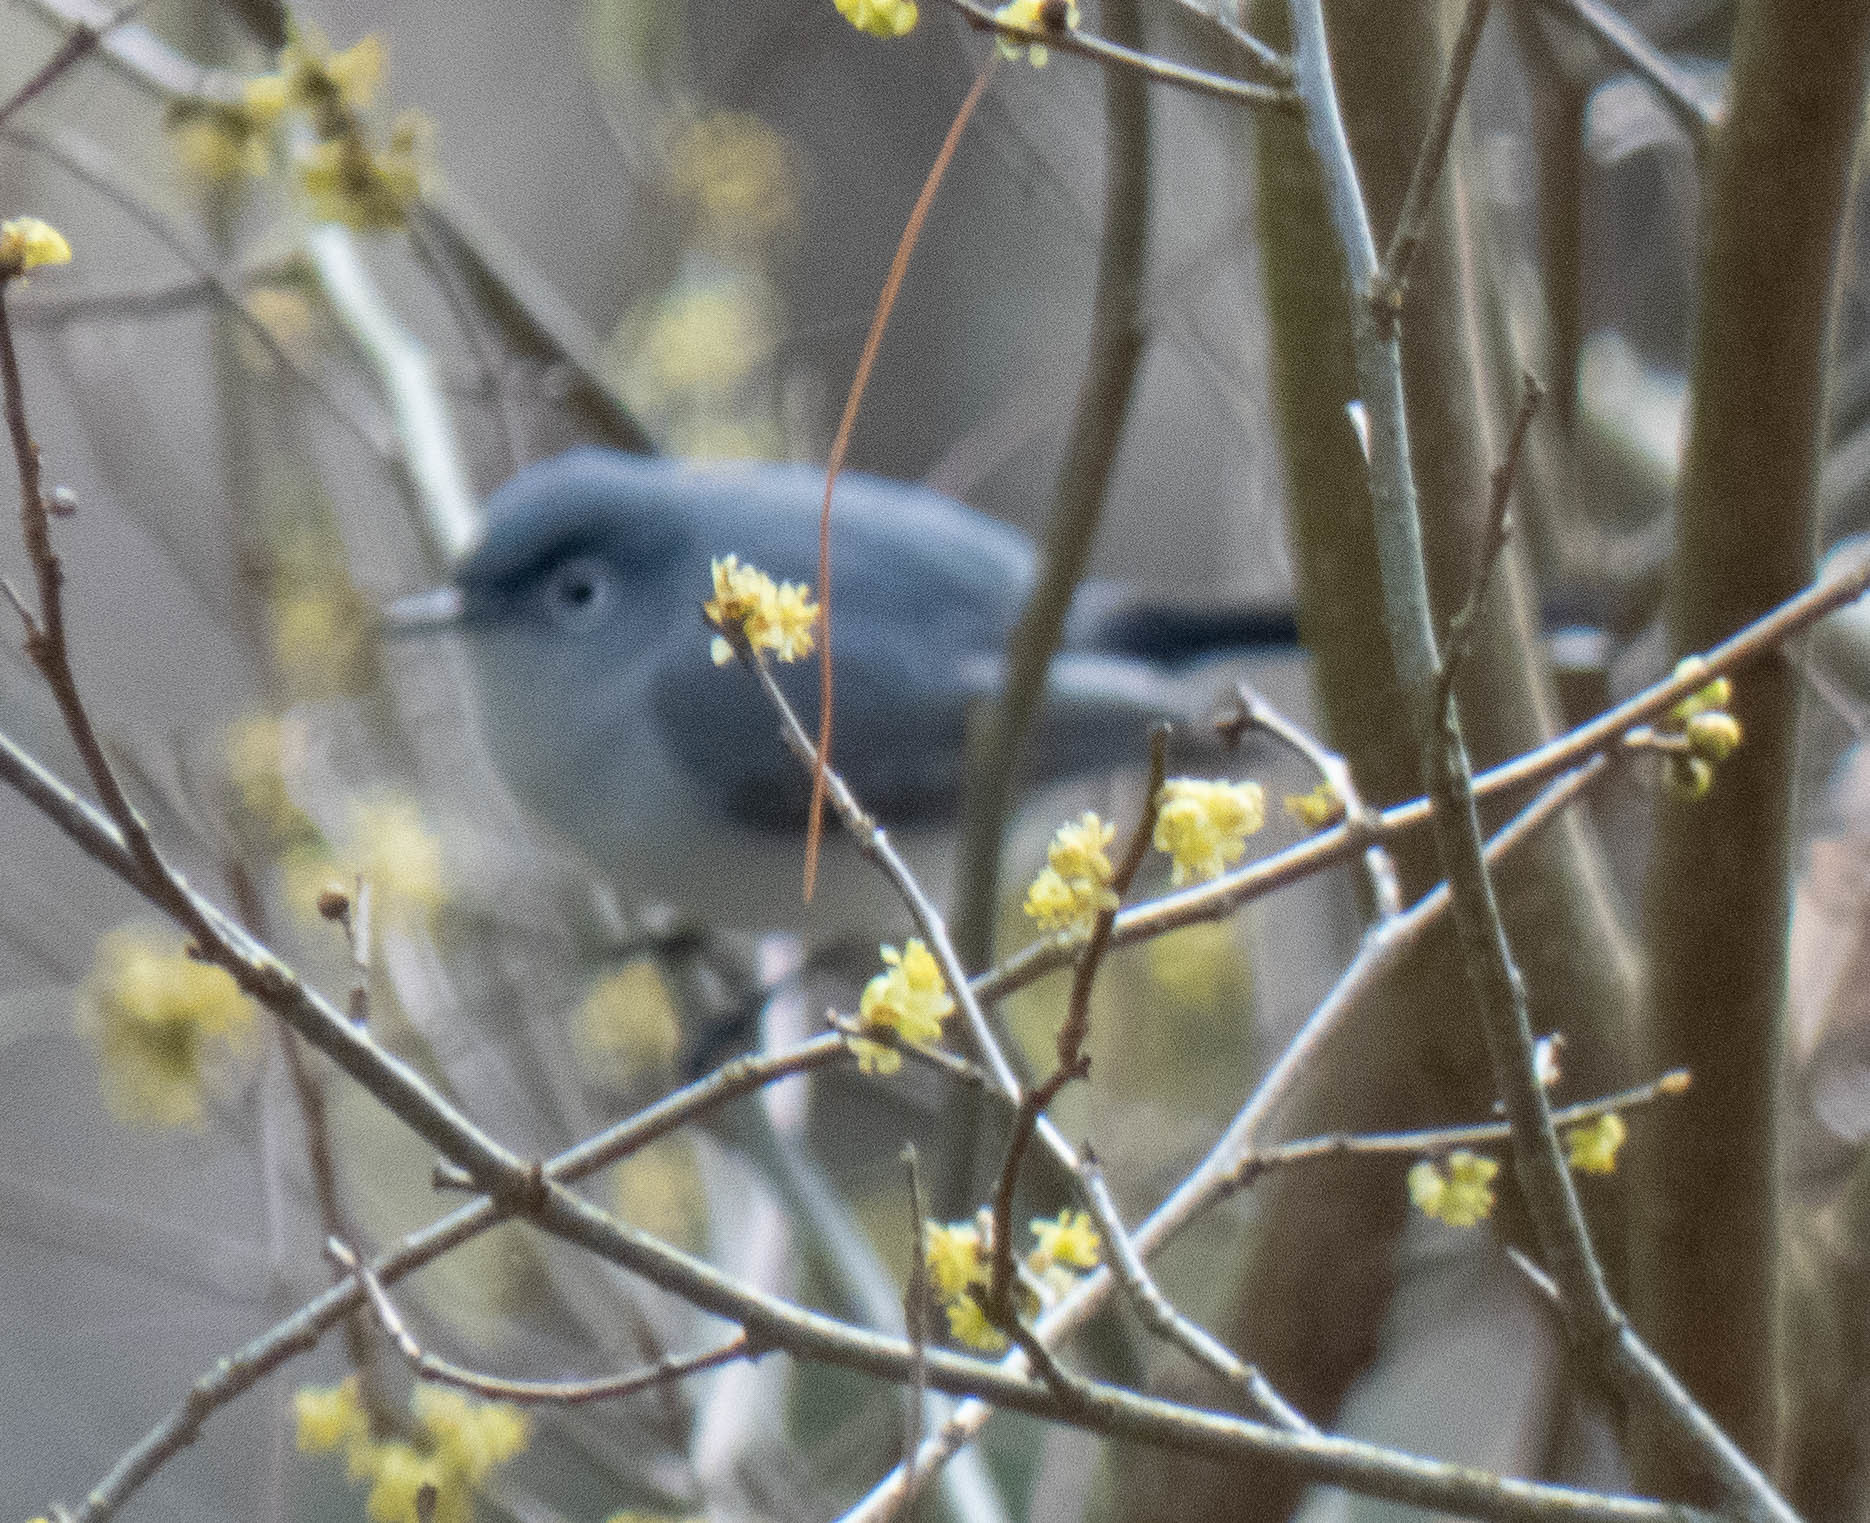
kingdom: Animalia
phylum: Chordata
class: Aves
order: Passeriformes
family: Polioptilidae
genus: Polioptila
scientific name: Polioptila caerulea
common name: Blue-gray gnatcatcher
